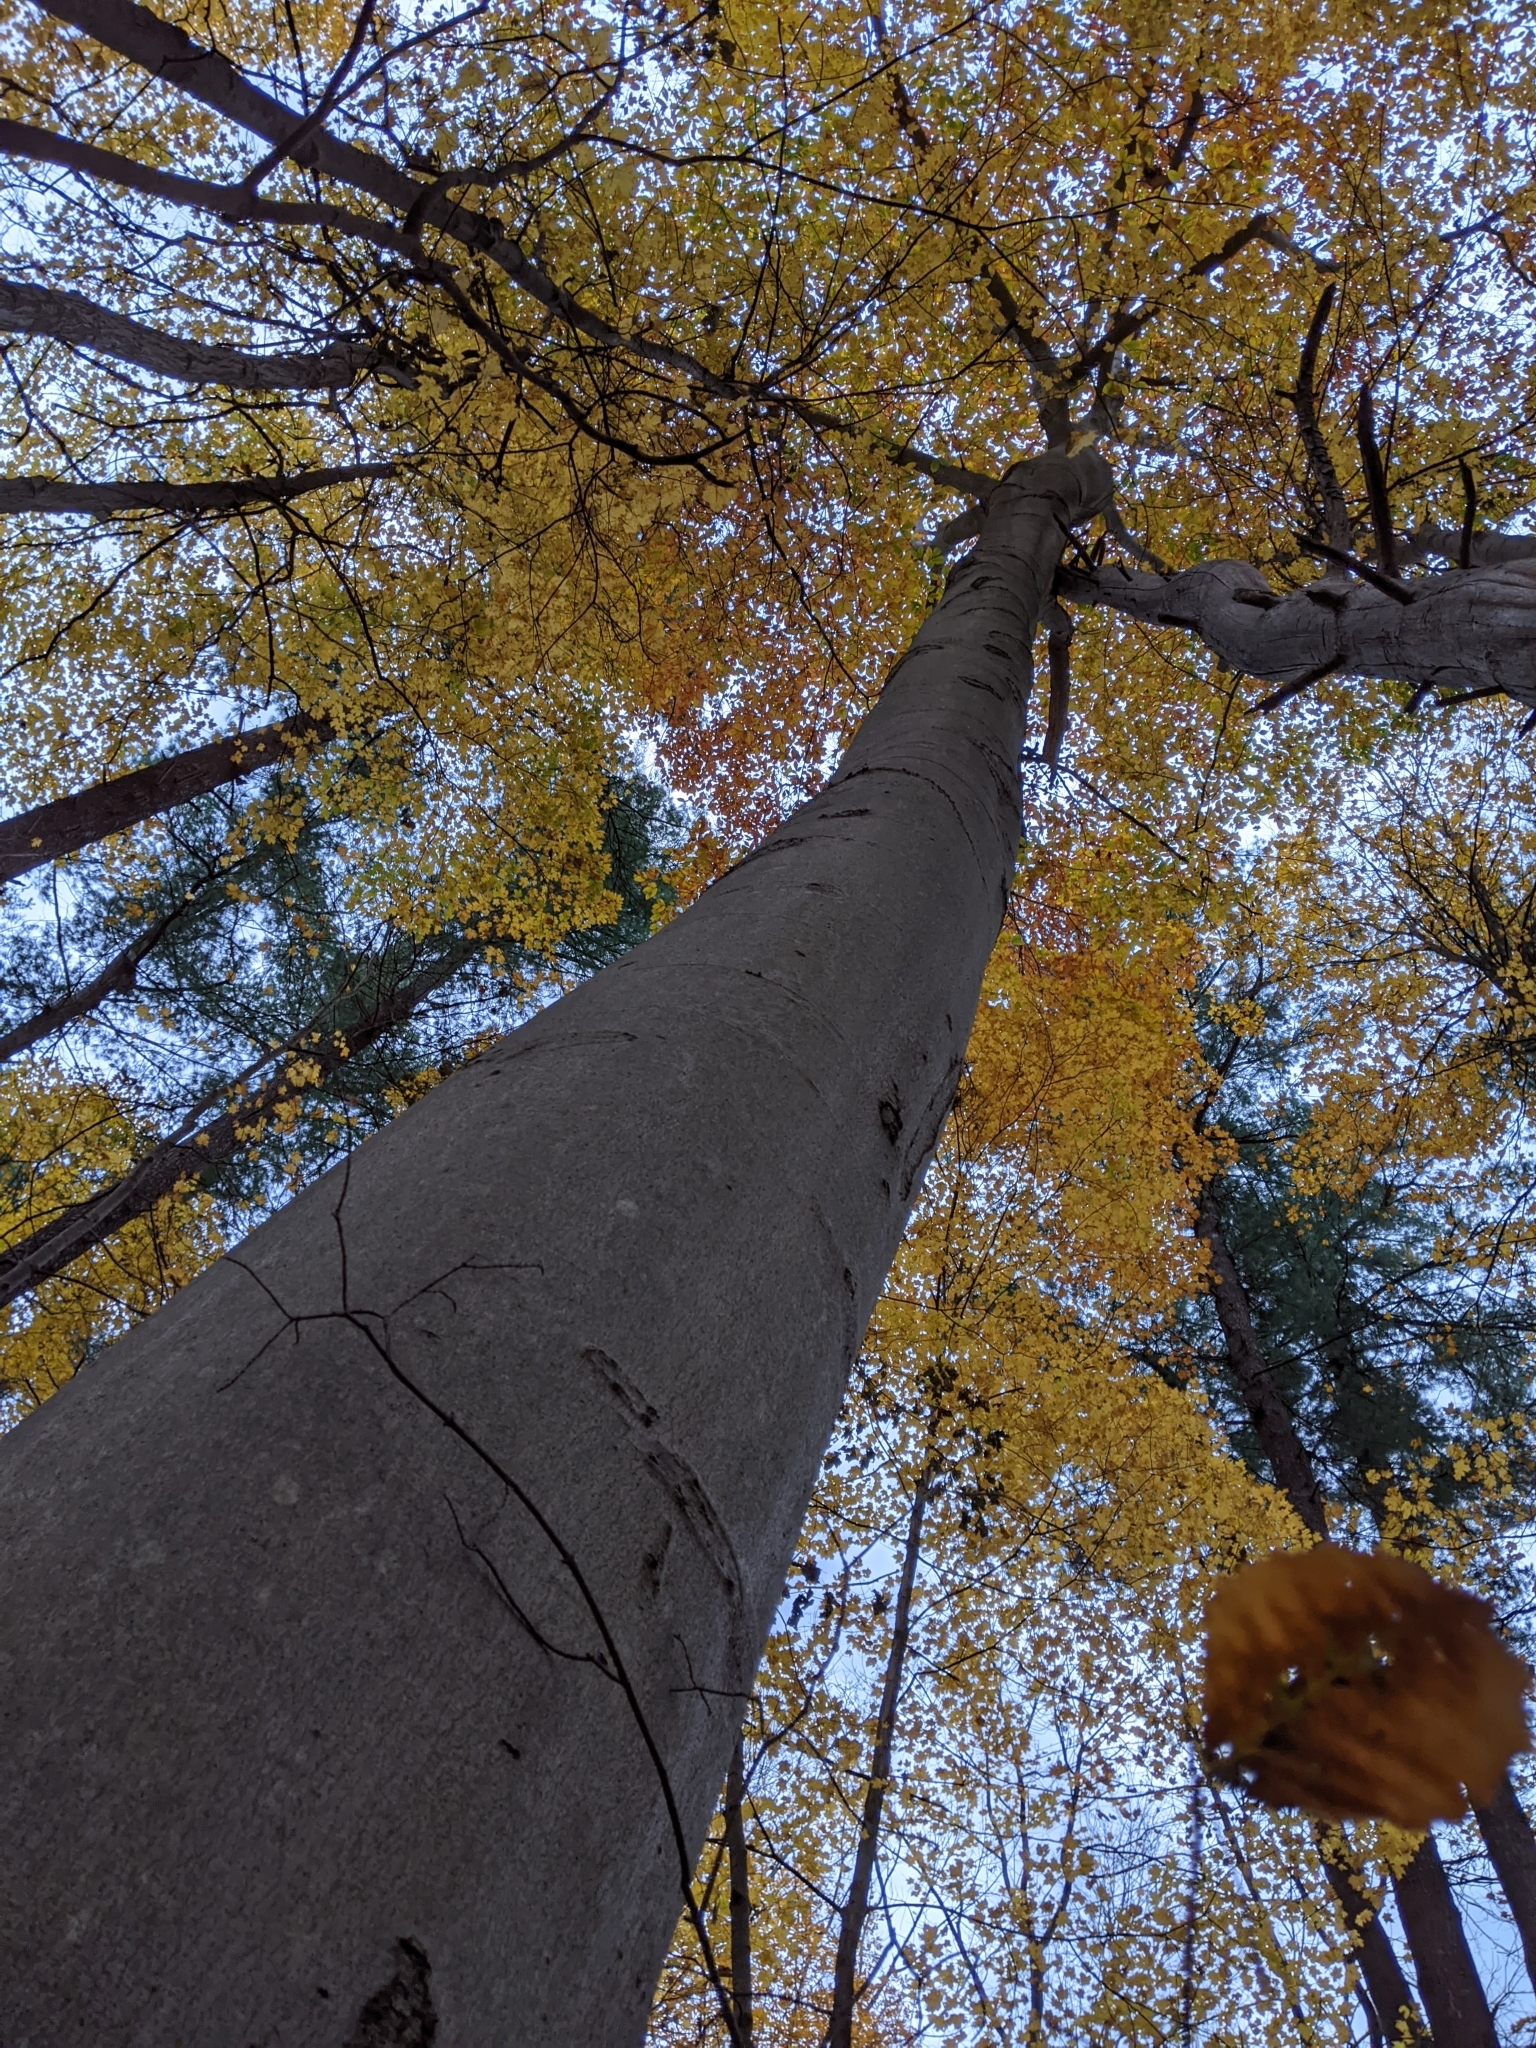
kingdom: Fungi
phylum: Ascomycota
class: Dothideomycetes
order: Trypetheliales
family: Trypetheliaceae
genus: Viridothelium
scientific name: Viridothelium virens
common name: Speckled blister lichen
